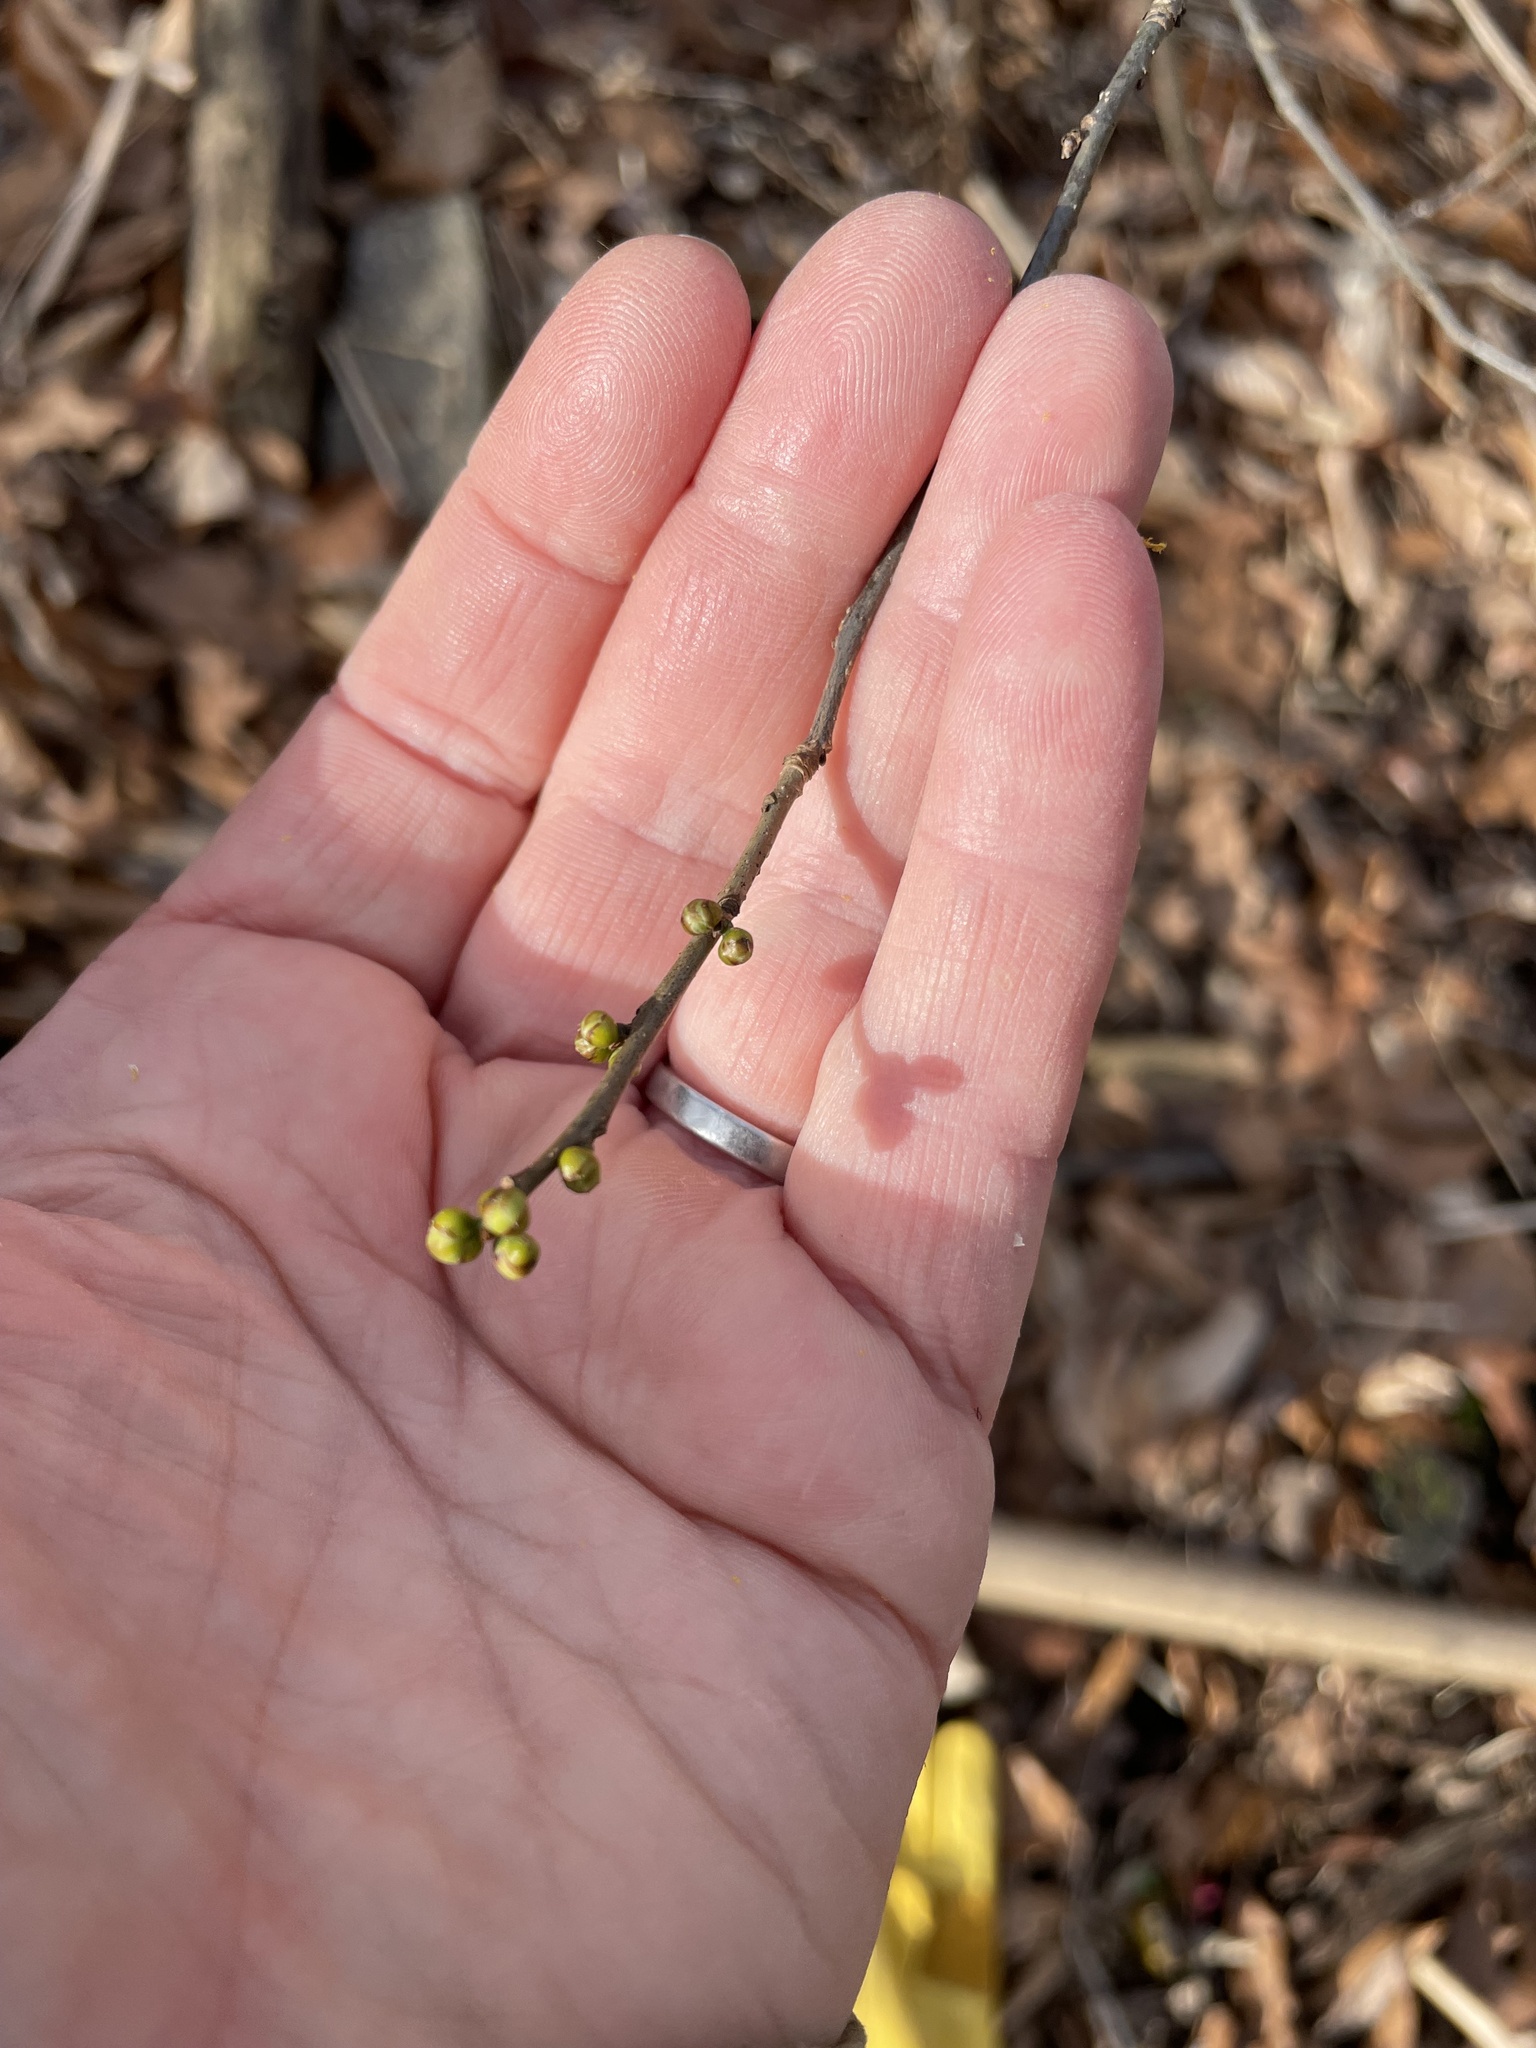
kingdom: Plantae
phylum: Tracheophyta
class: Magnoliopsida
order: Laurales
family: Lauraceae
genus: Lindera
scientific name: Lindera benzoin
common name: Spicebush
